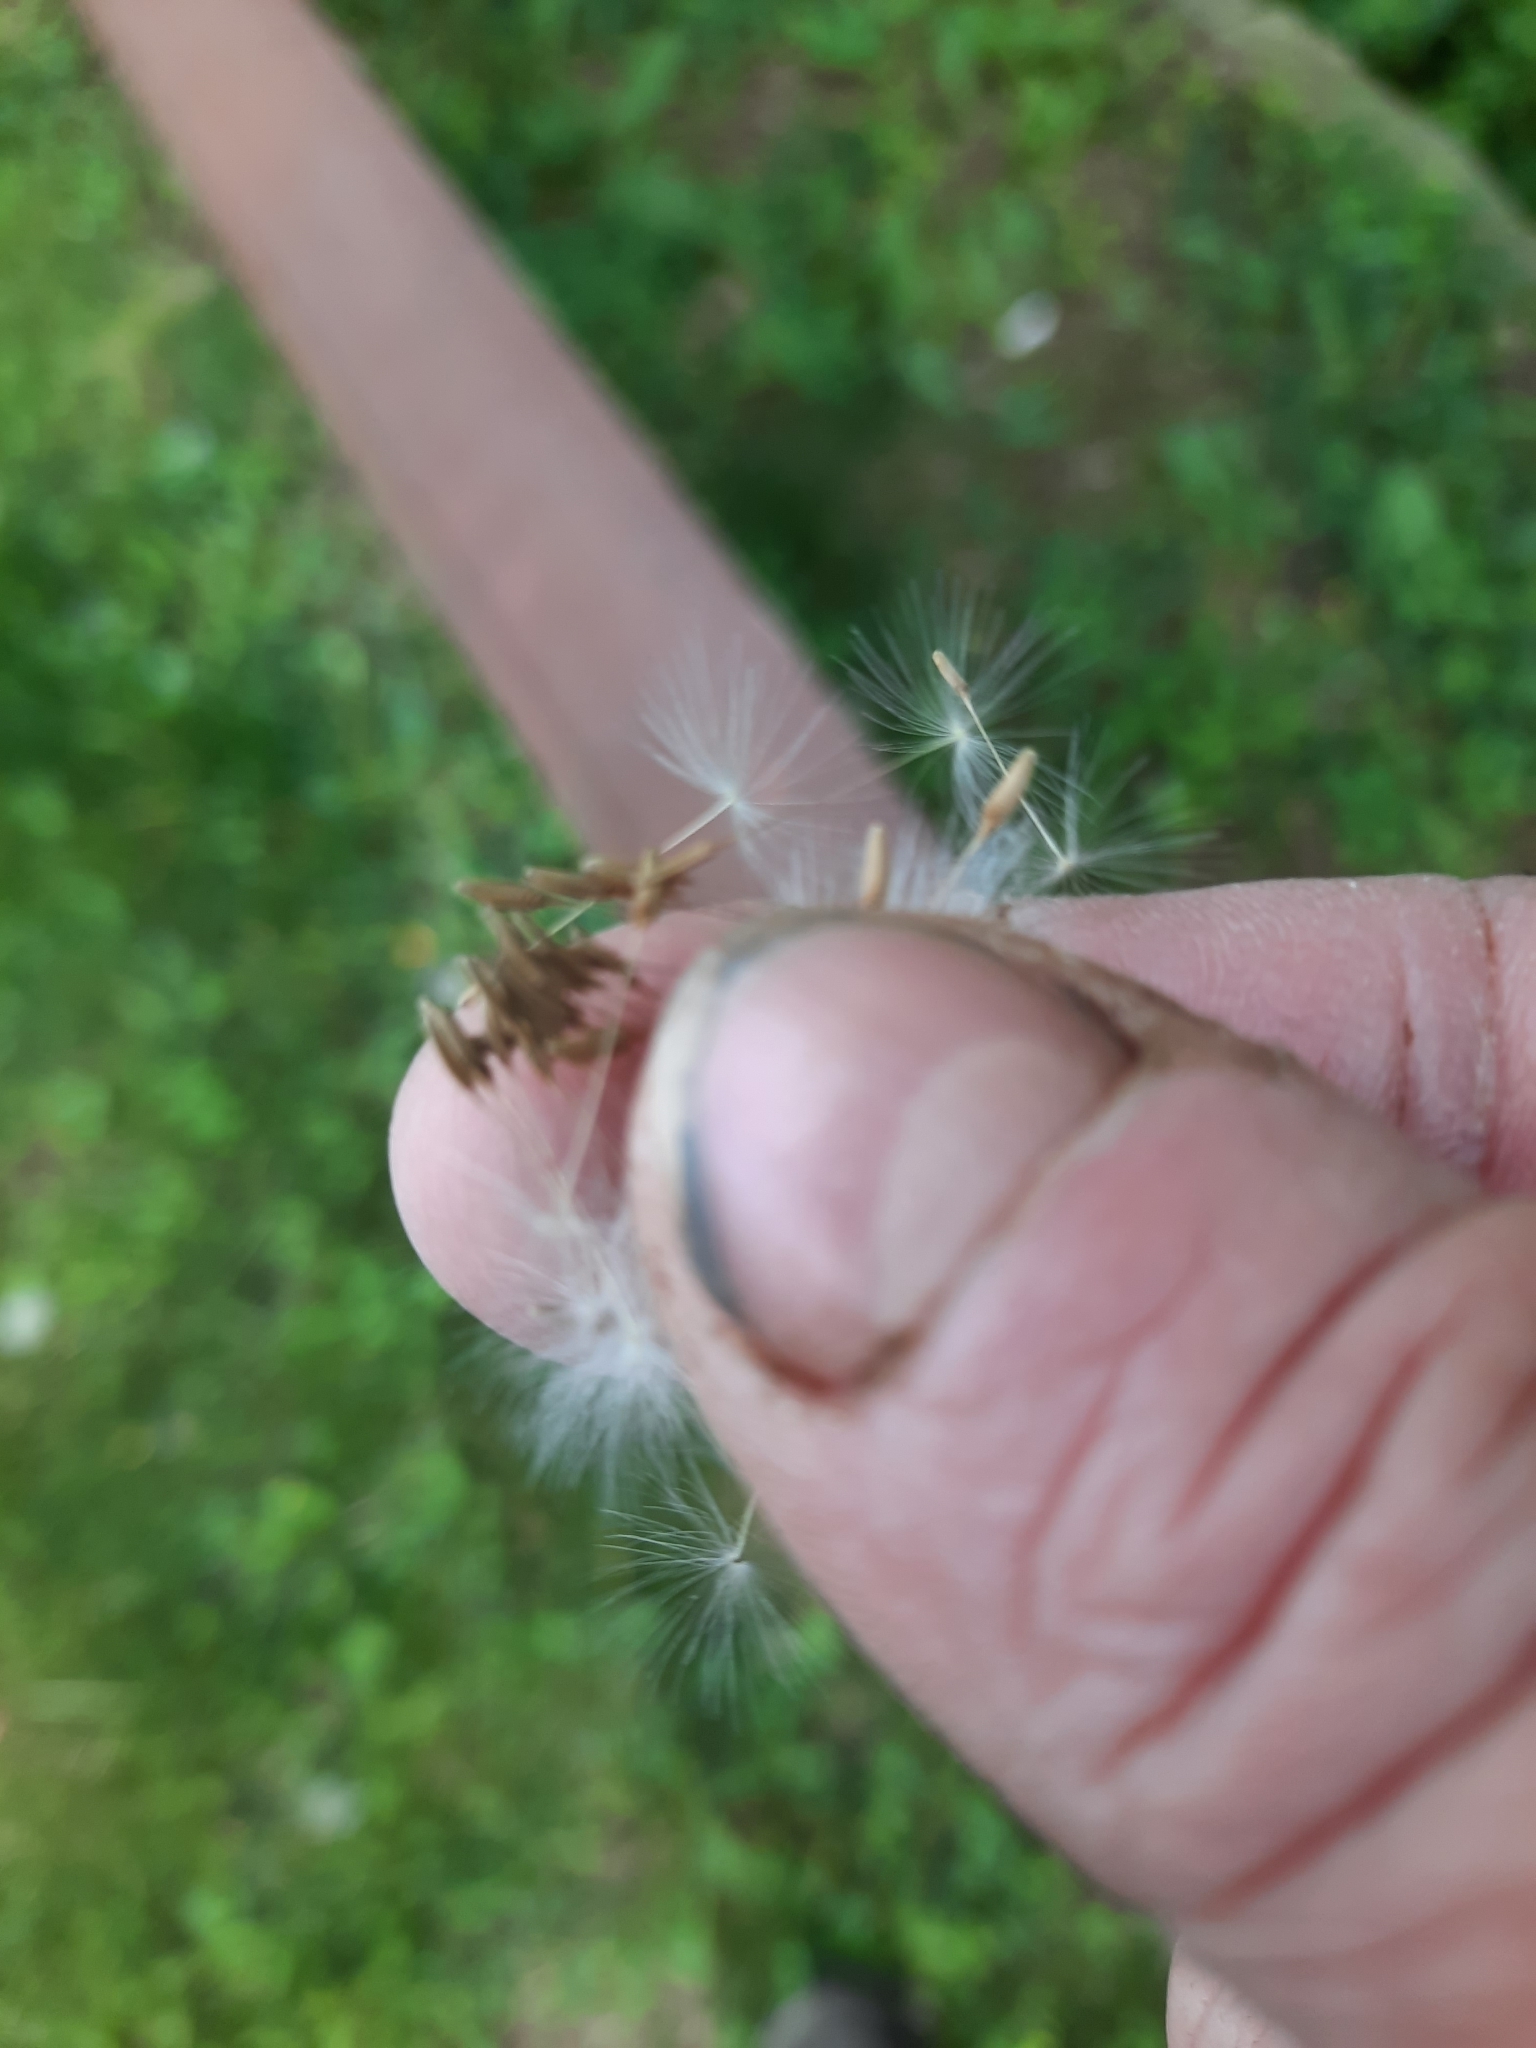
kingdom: Plantae
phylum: Tracheophyta
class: Magnoliopsida
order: Asterales
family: Asteraceae
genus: Taraxacum
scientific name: Taraxacum officinale
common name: Common dandelion
